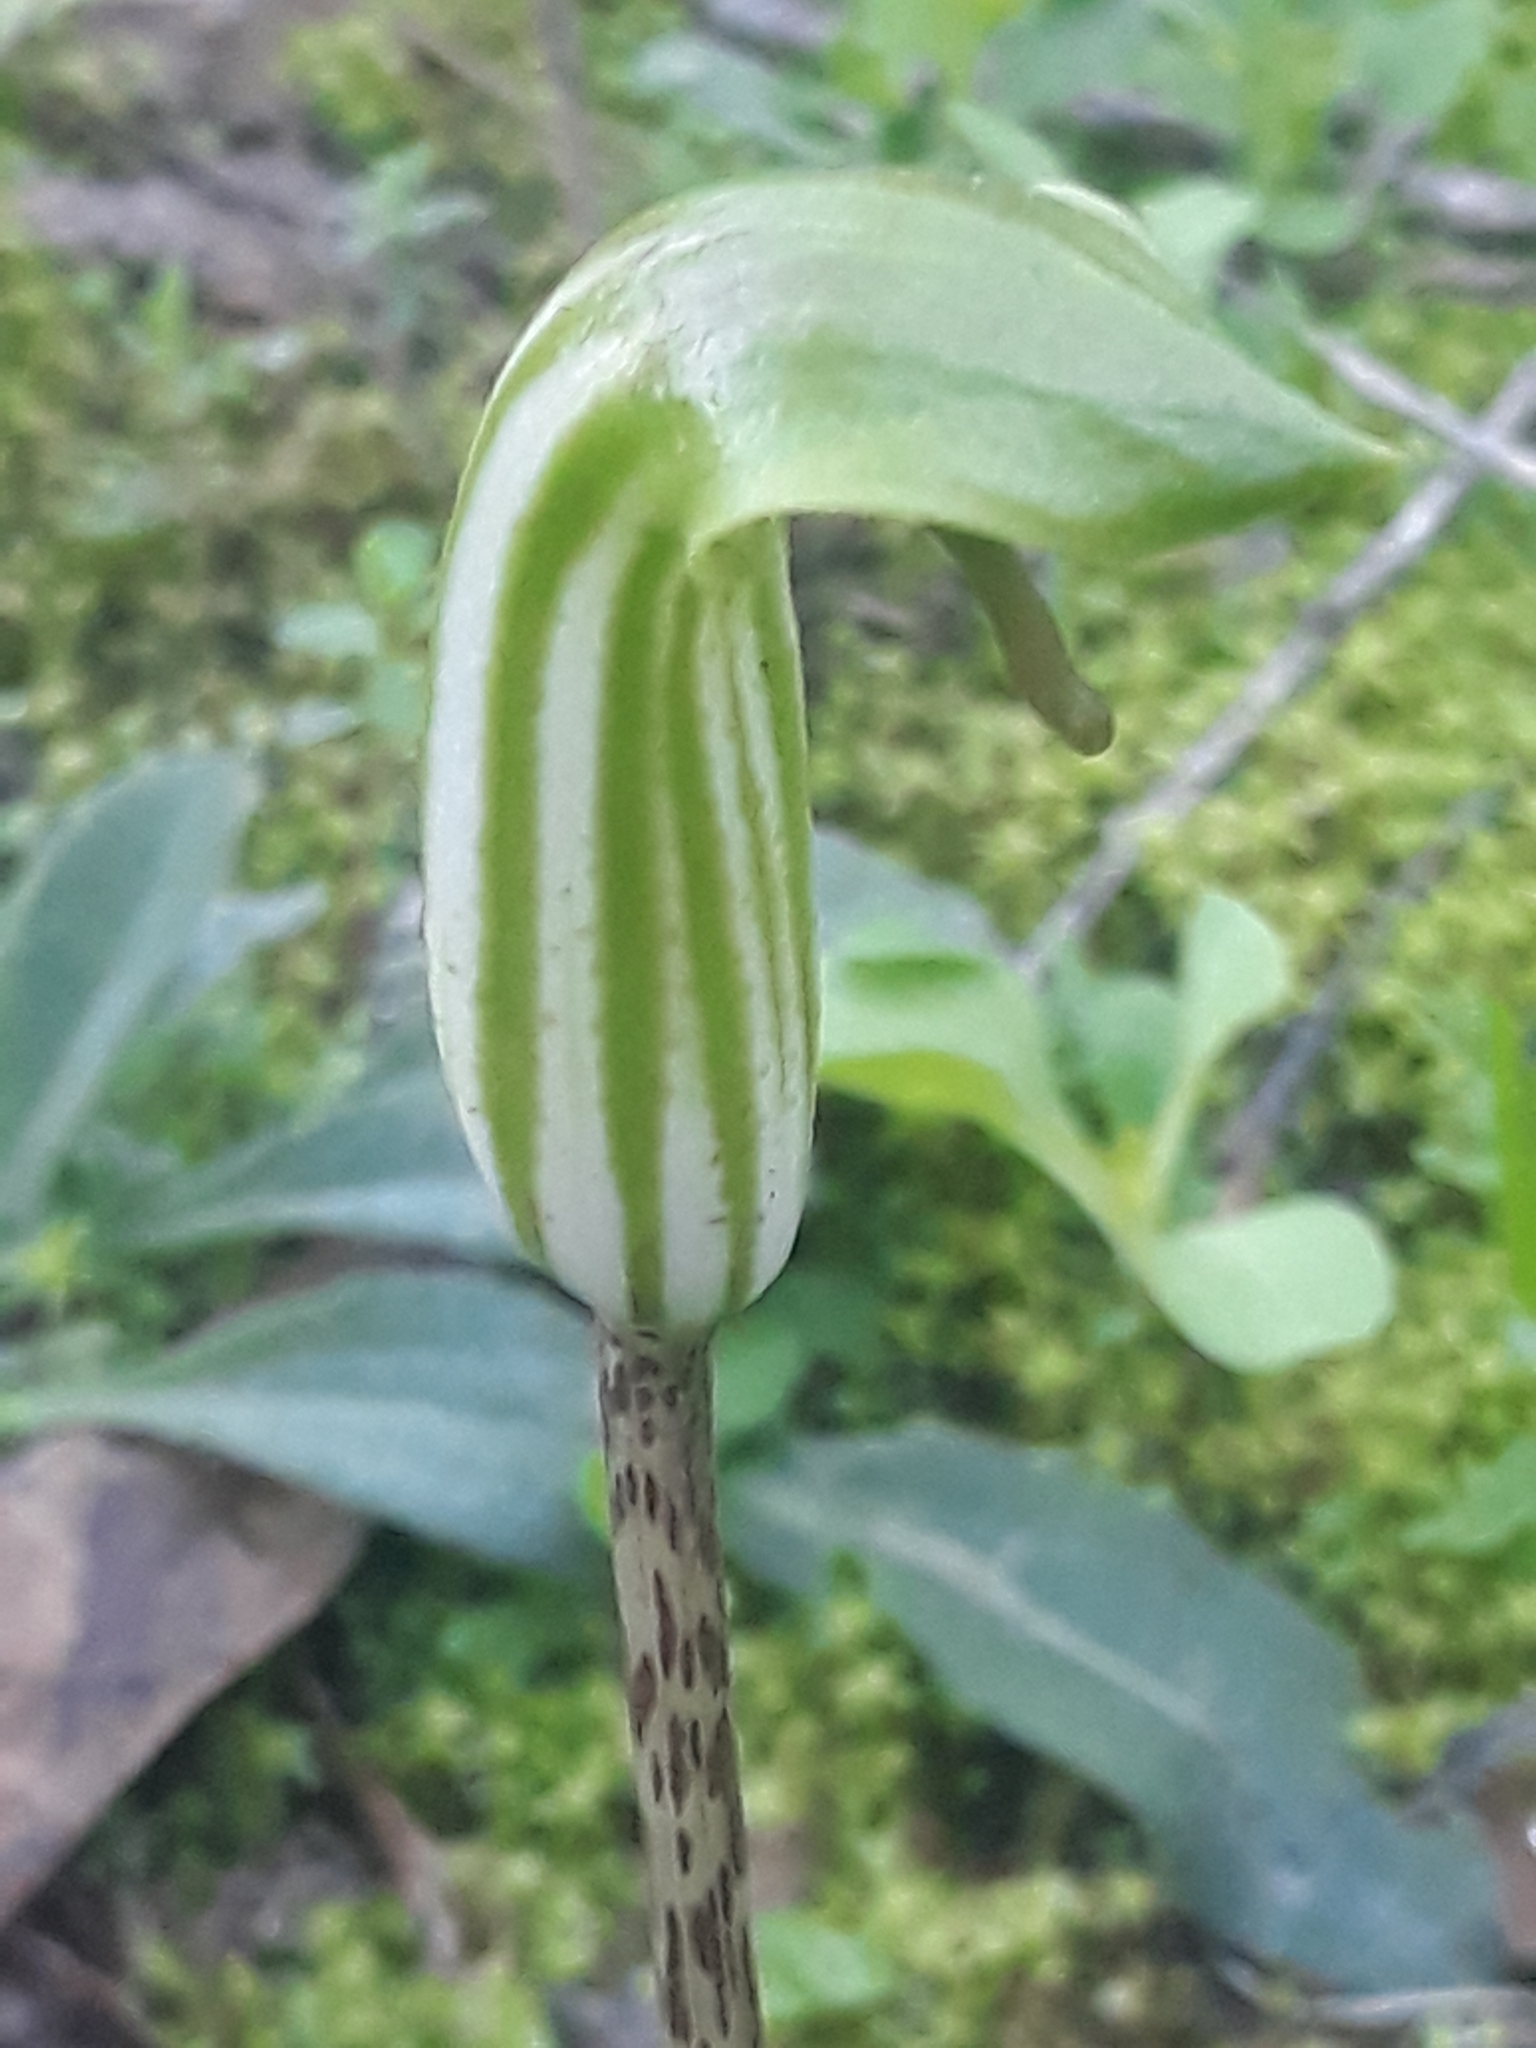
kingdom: Plantae
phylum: Tracheophyta
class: Liliopsida
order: Alismatales
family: Araceae
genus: Arisarum
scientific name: Arisarum vulgare
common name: Common arisarum
